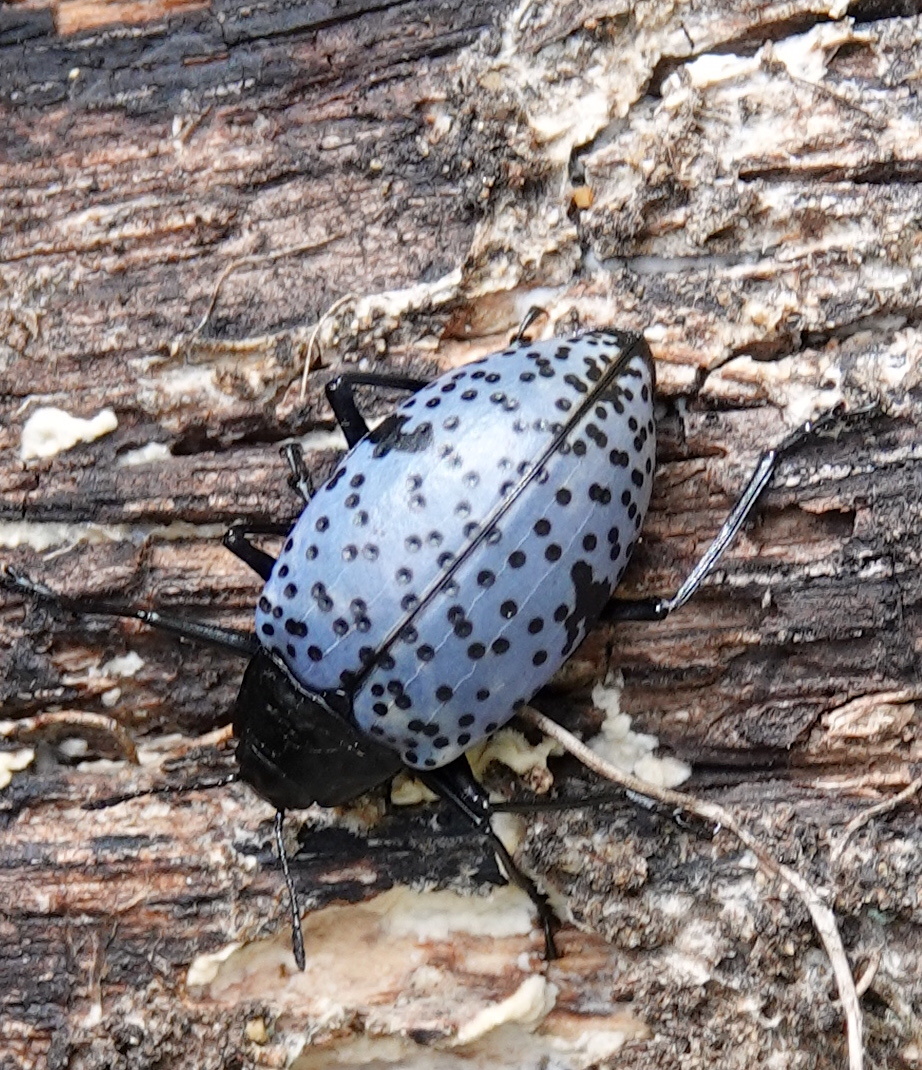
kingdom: Animalia
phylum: Arthropoda
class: Insecta
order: Coleoptera
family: Erotylidae
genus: Gibbifer
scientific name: Gibbifer californicus
